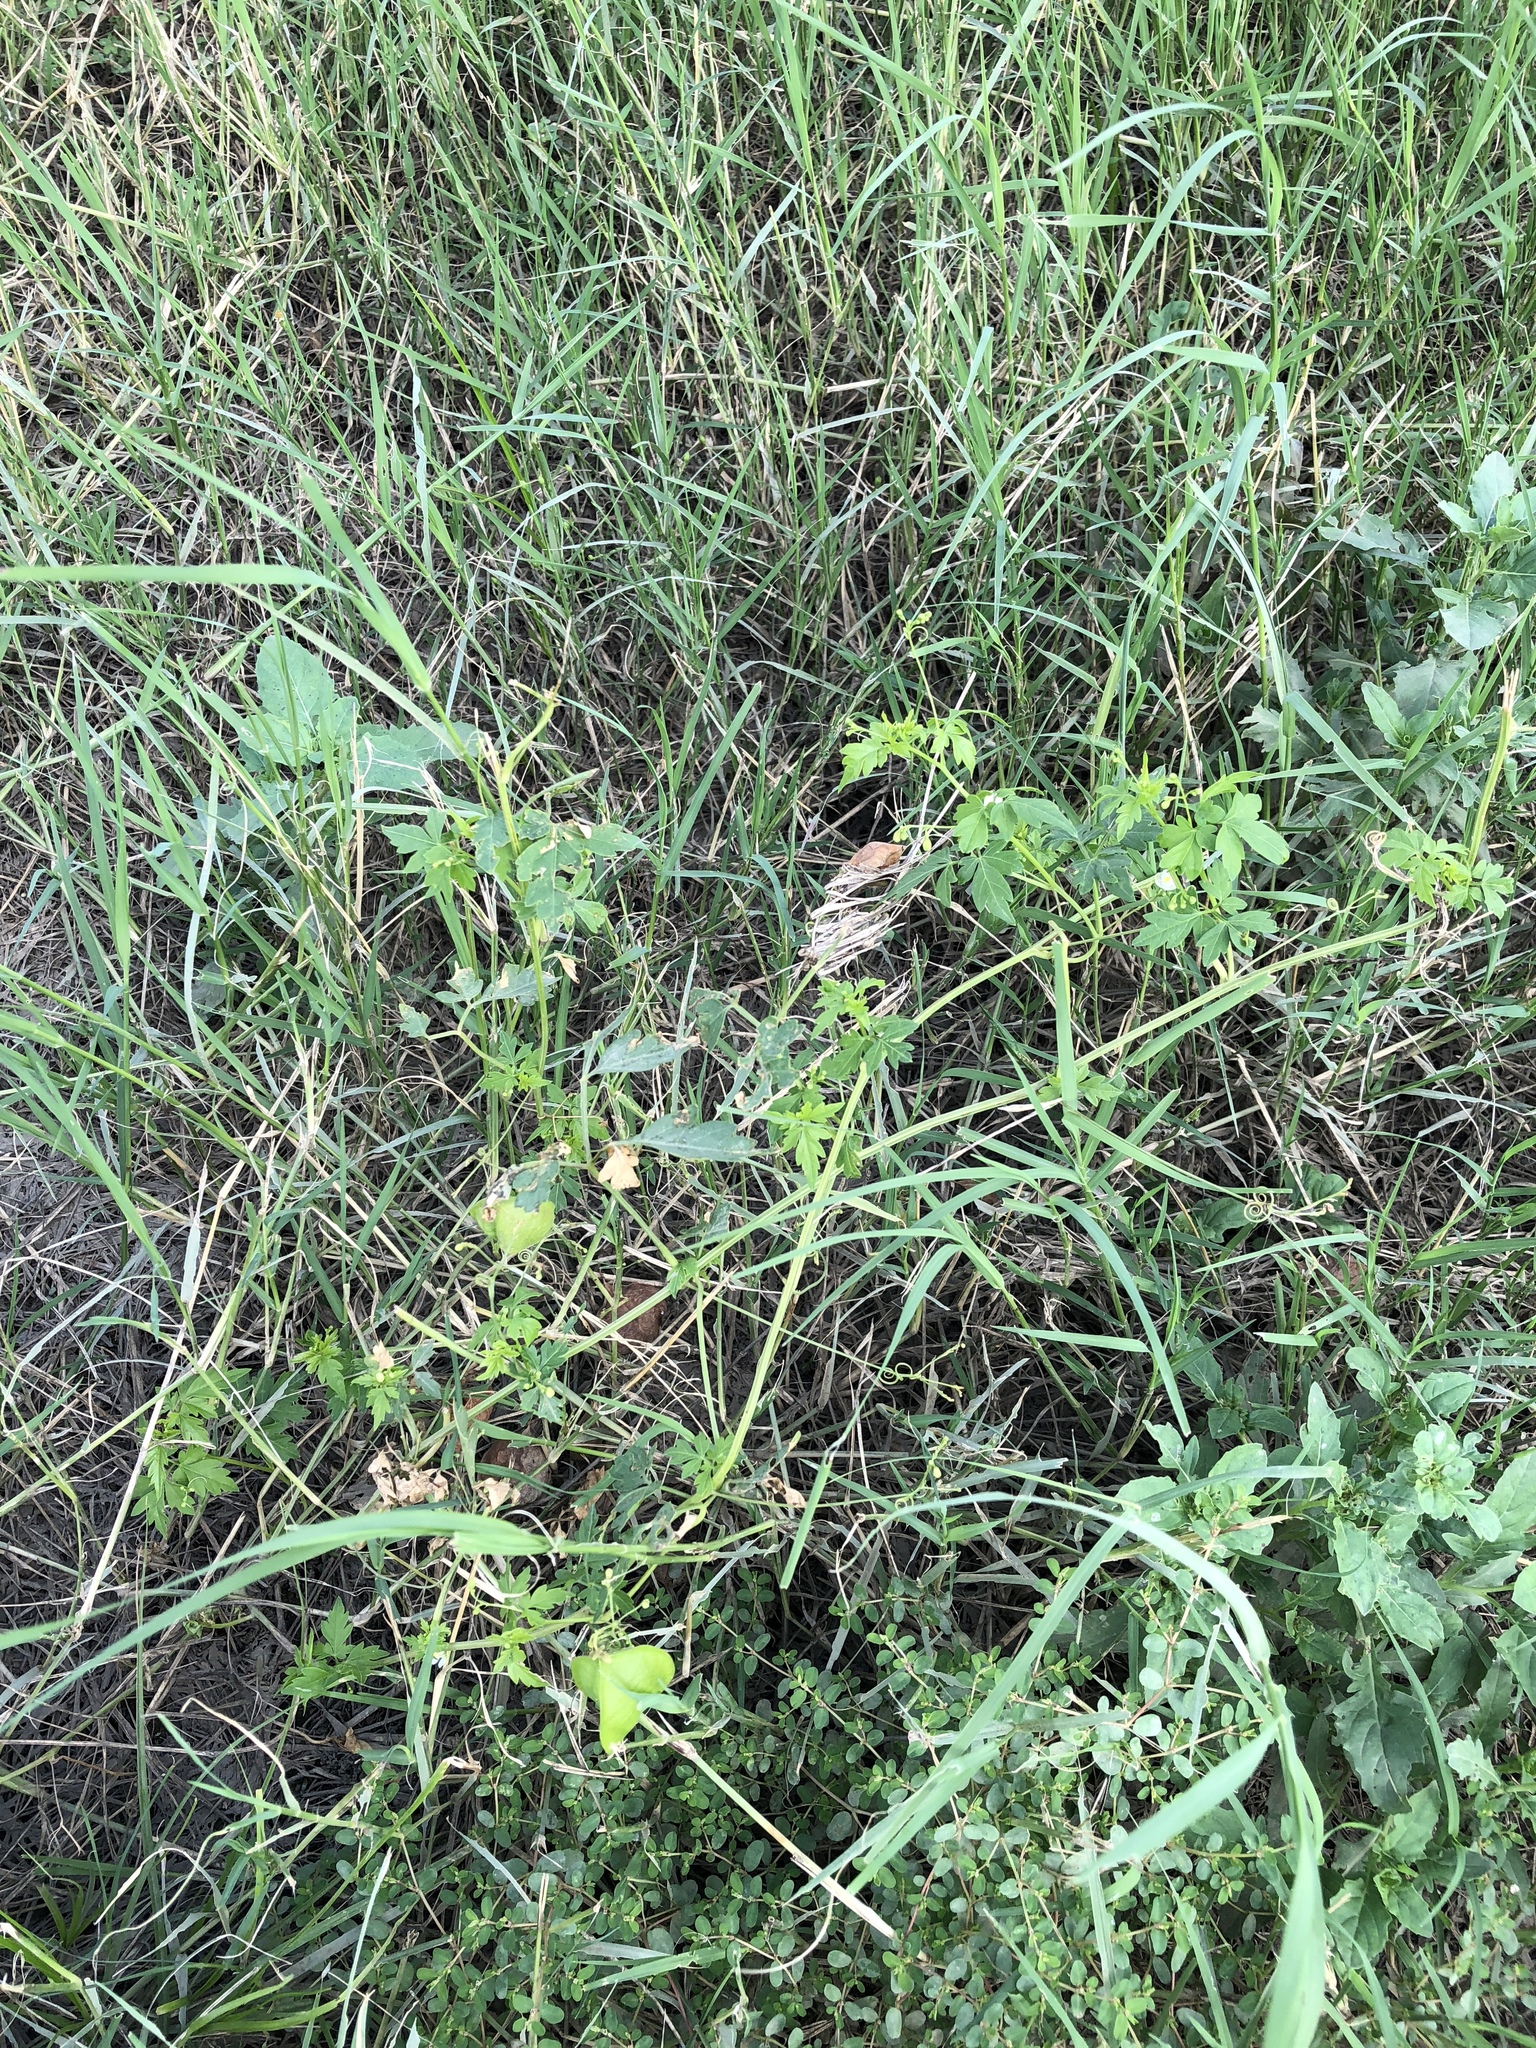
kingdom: Plantae
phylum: Tracheophyta
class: Magnoliopsida
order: Sapindales
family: Sapindaceae
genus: Cardiospermum
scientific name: Cardiospermum halicacabum
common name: Balloon vine
